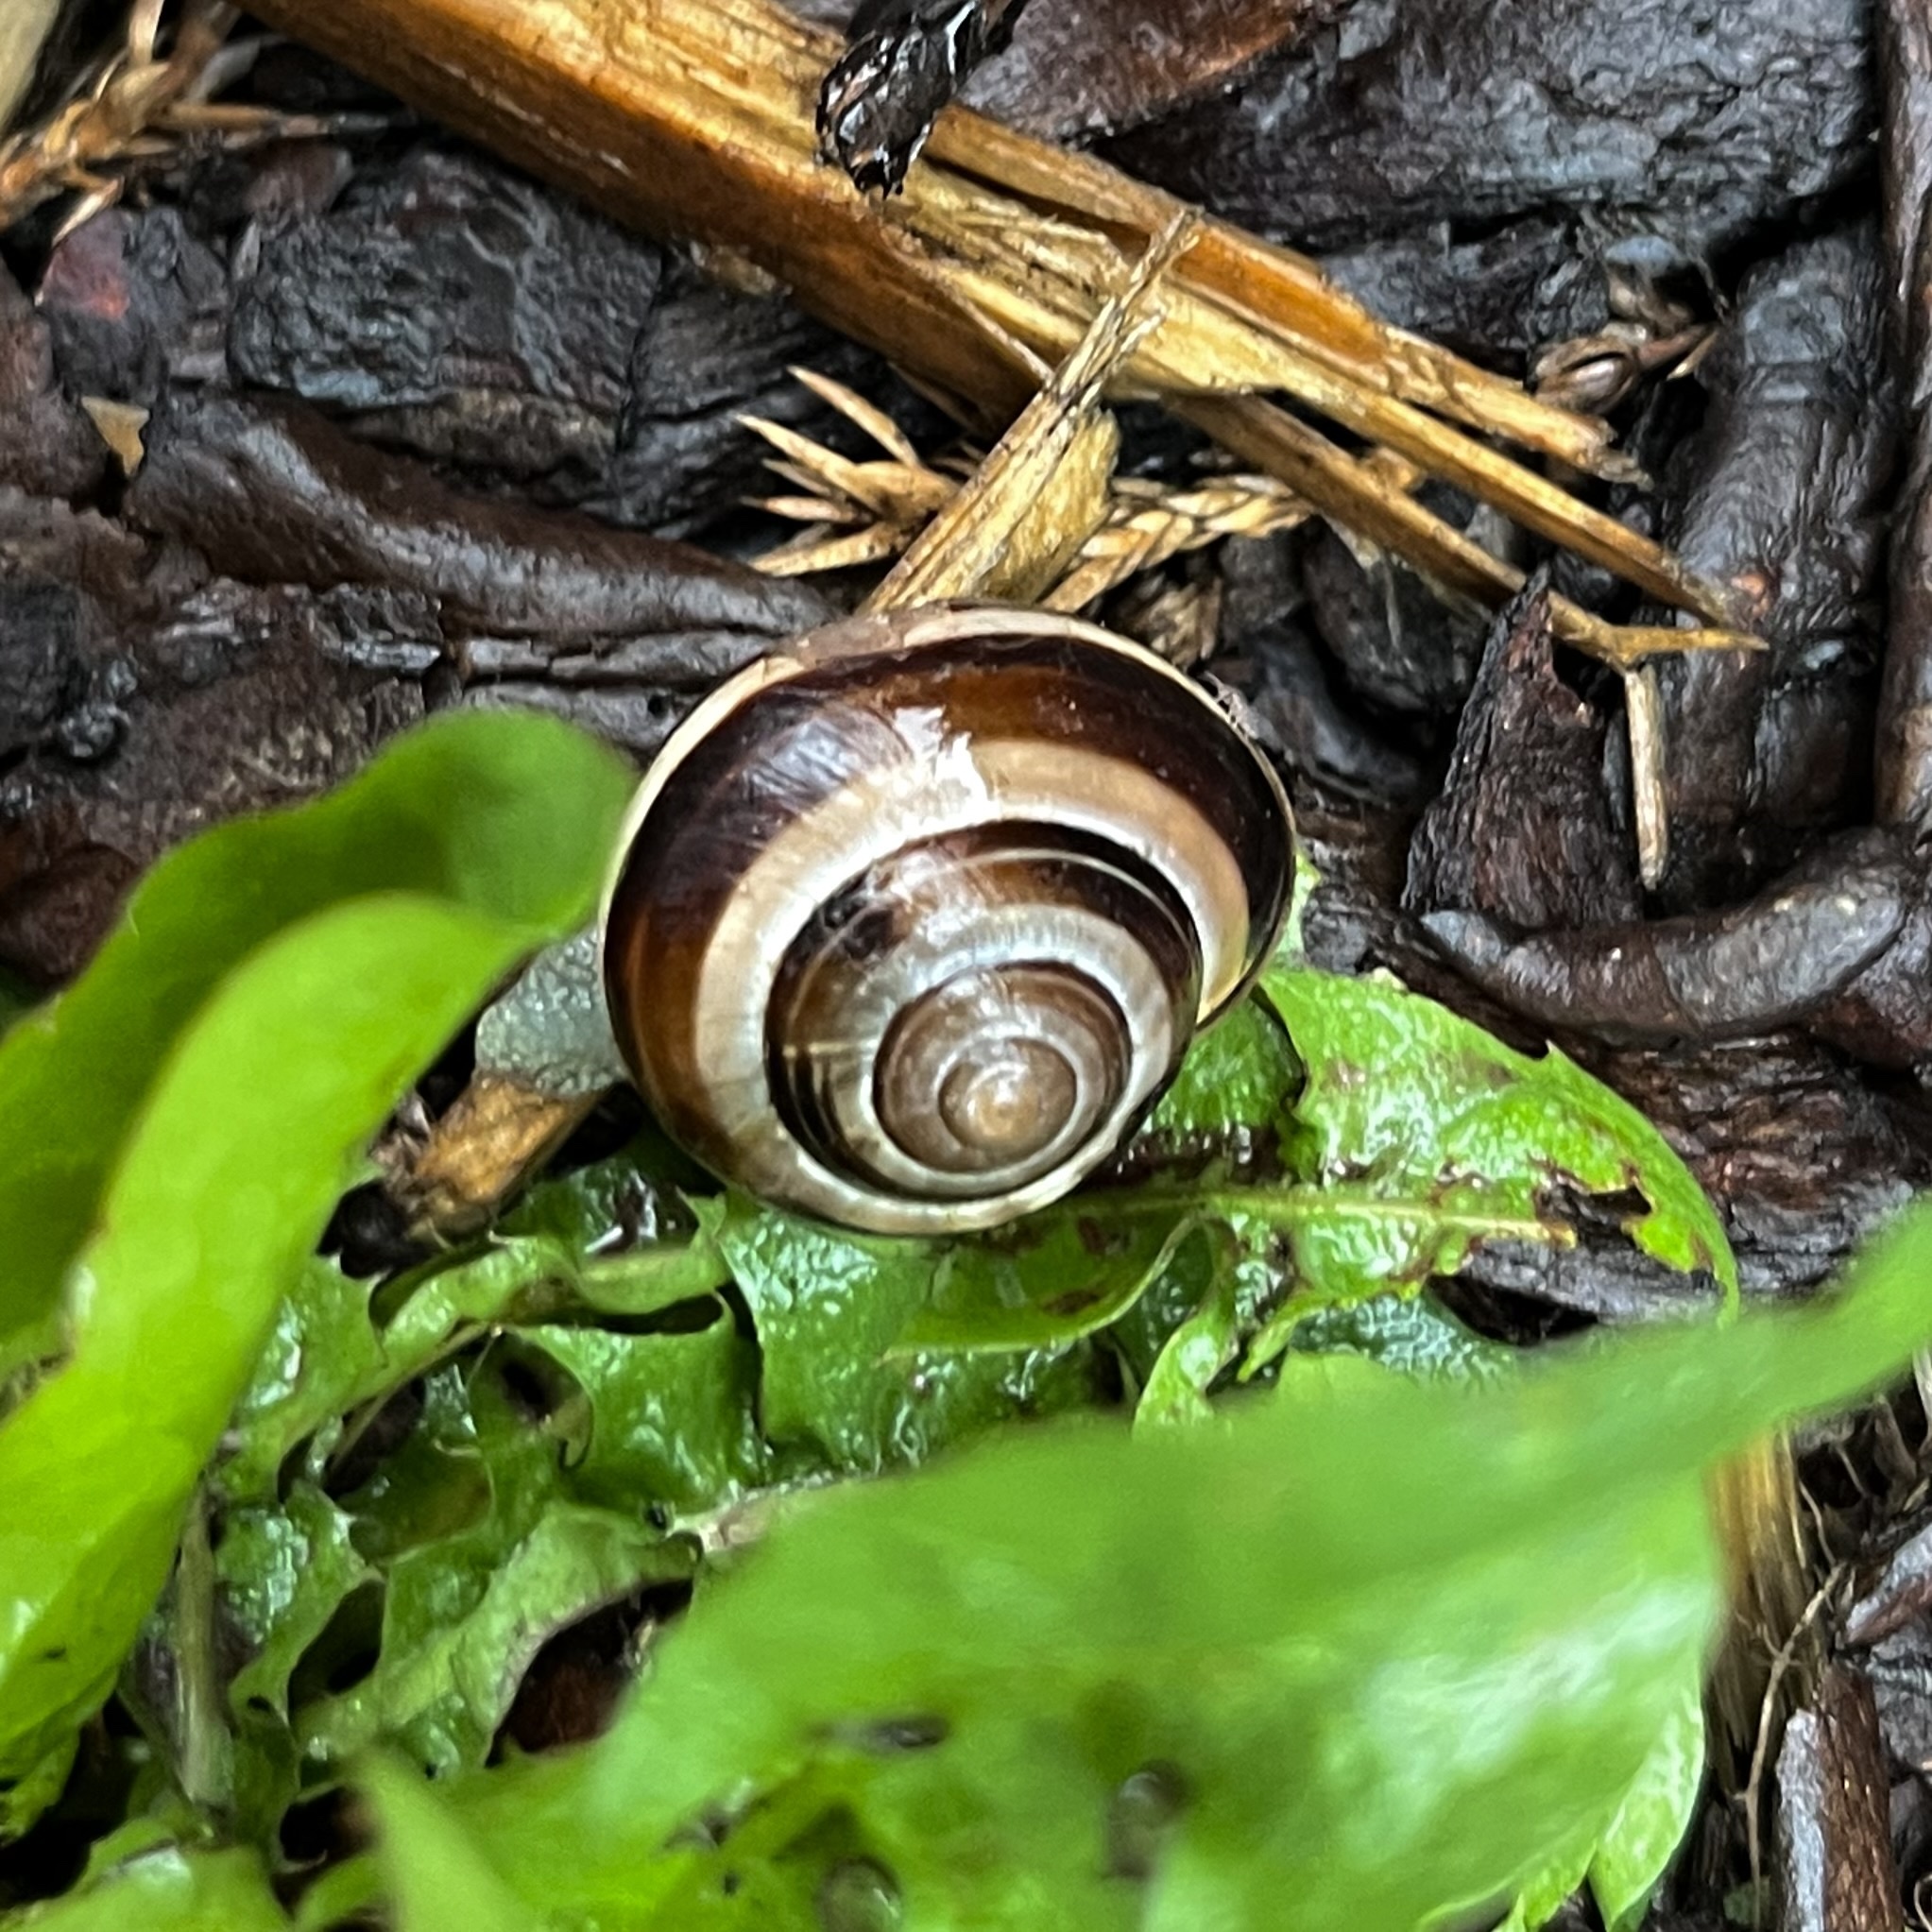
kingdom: Animalia
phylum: Mollusca
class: Gastropoda
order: Stylommatophora
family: Helicidae
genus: Cepaea
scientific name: Cepaea nemoralis
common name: Grovesnail
